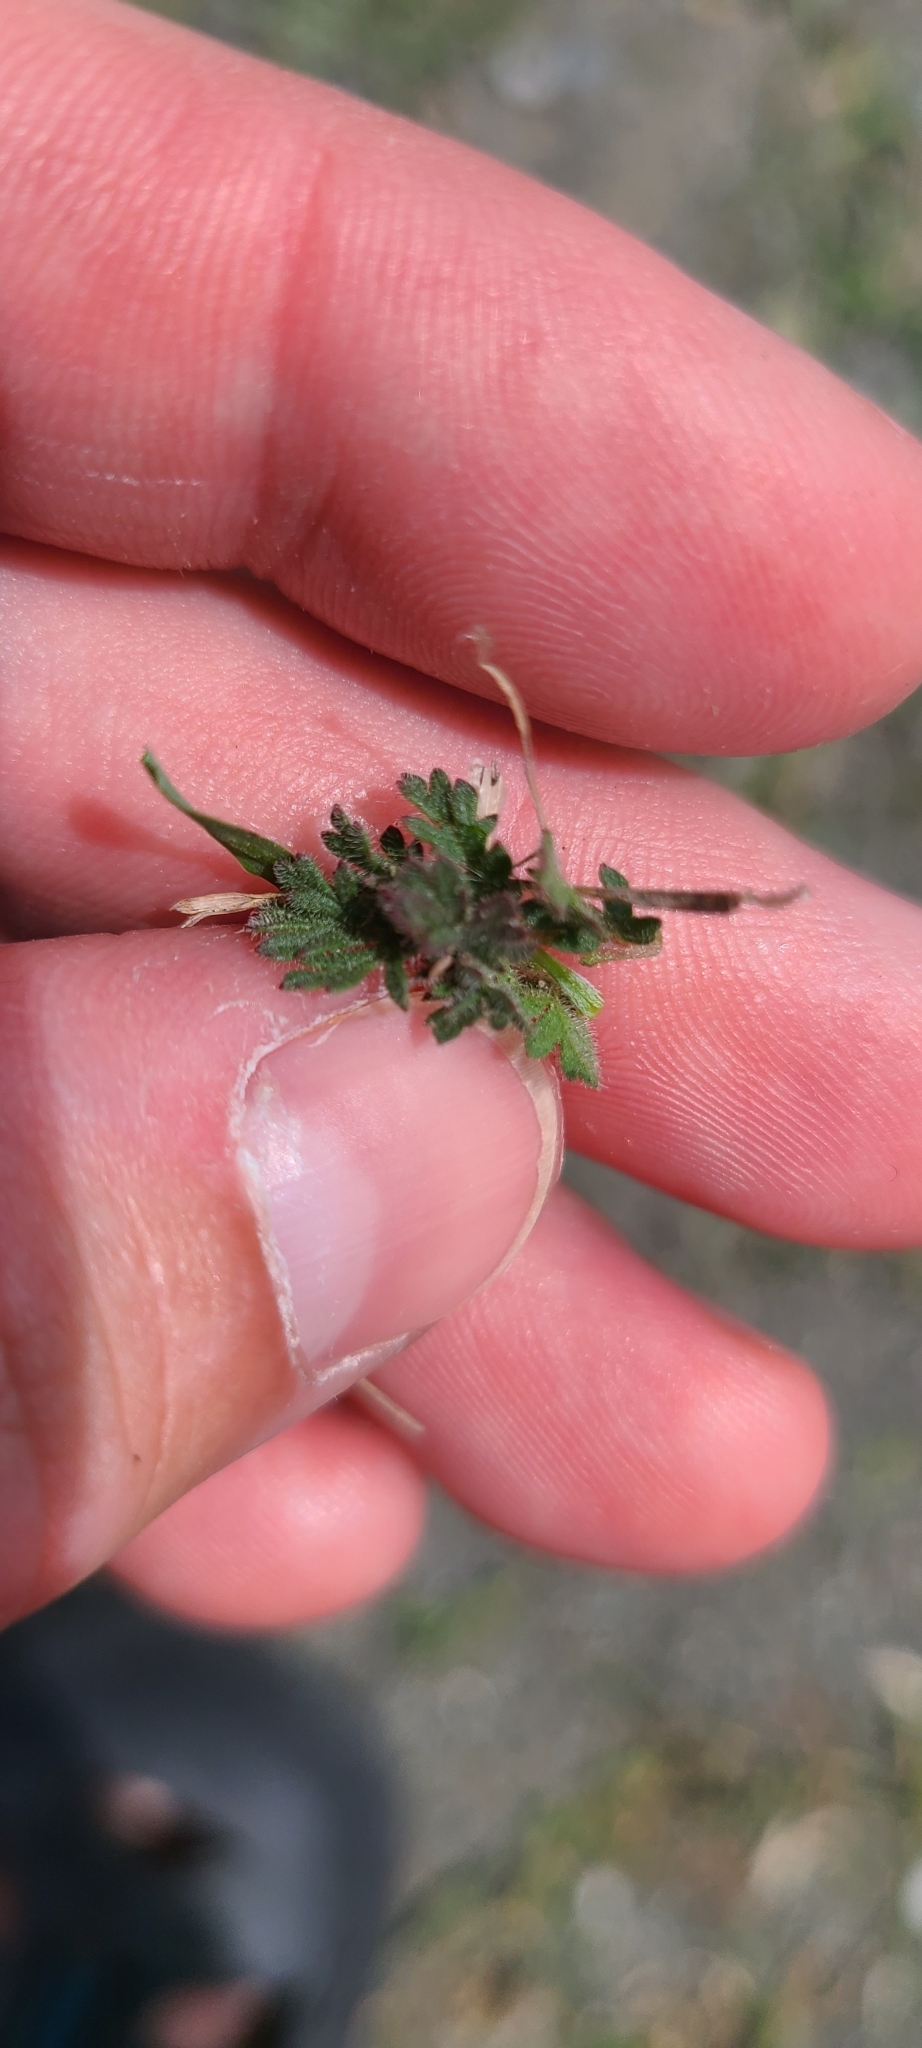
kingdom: Plantae
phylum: Tracheophyta
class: Magnoliopsida
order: Geraniales
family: Geraniaceae
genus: Erodium
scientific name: Erodium cicutarium
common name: Common stork's-bill
